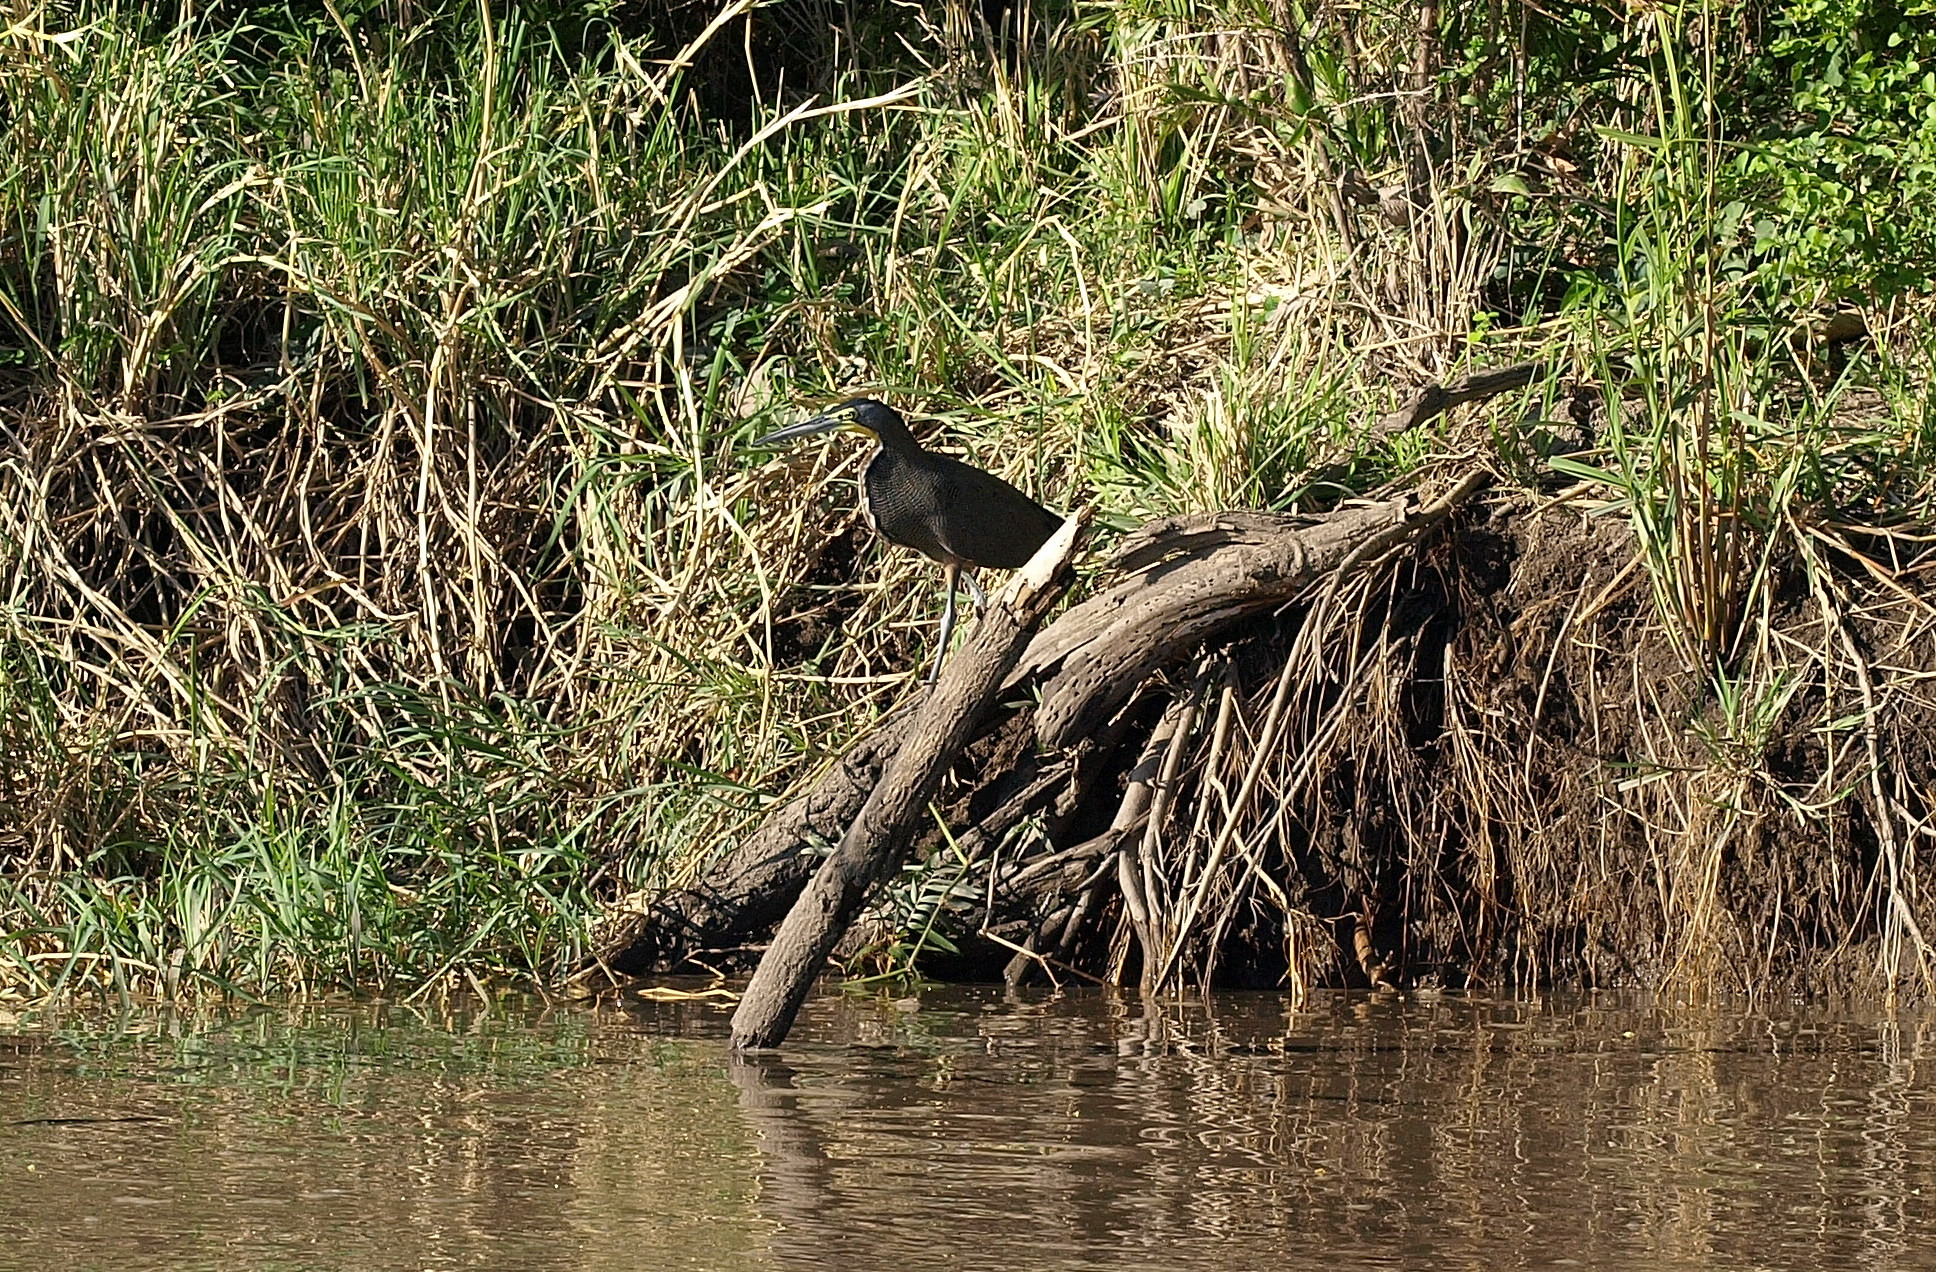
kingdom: Animalia
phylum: Chordata
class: Aves
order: Pelecaniformes
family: Ardeidae
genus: Tigrisoma
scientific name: Tigrisoma mexicanum
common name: Bare-throated tiger-heron
